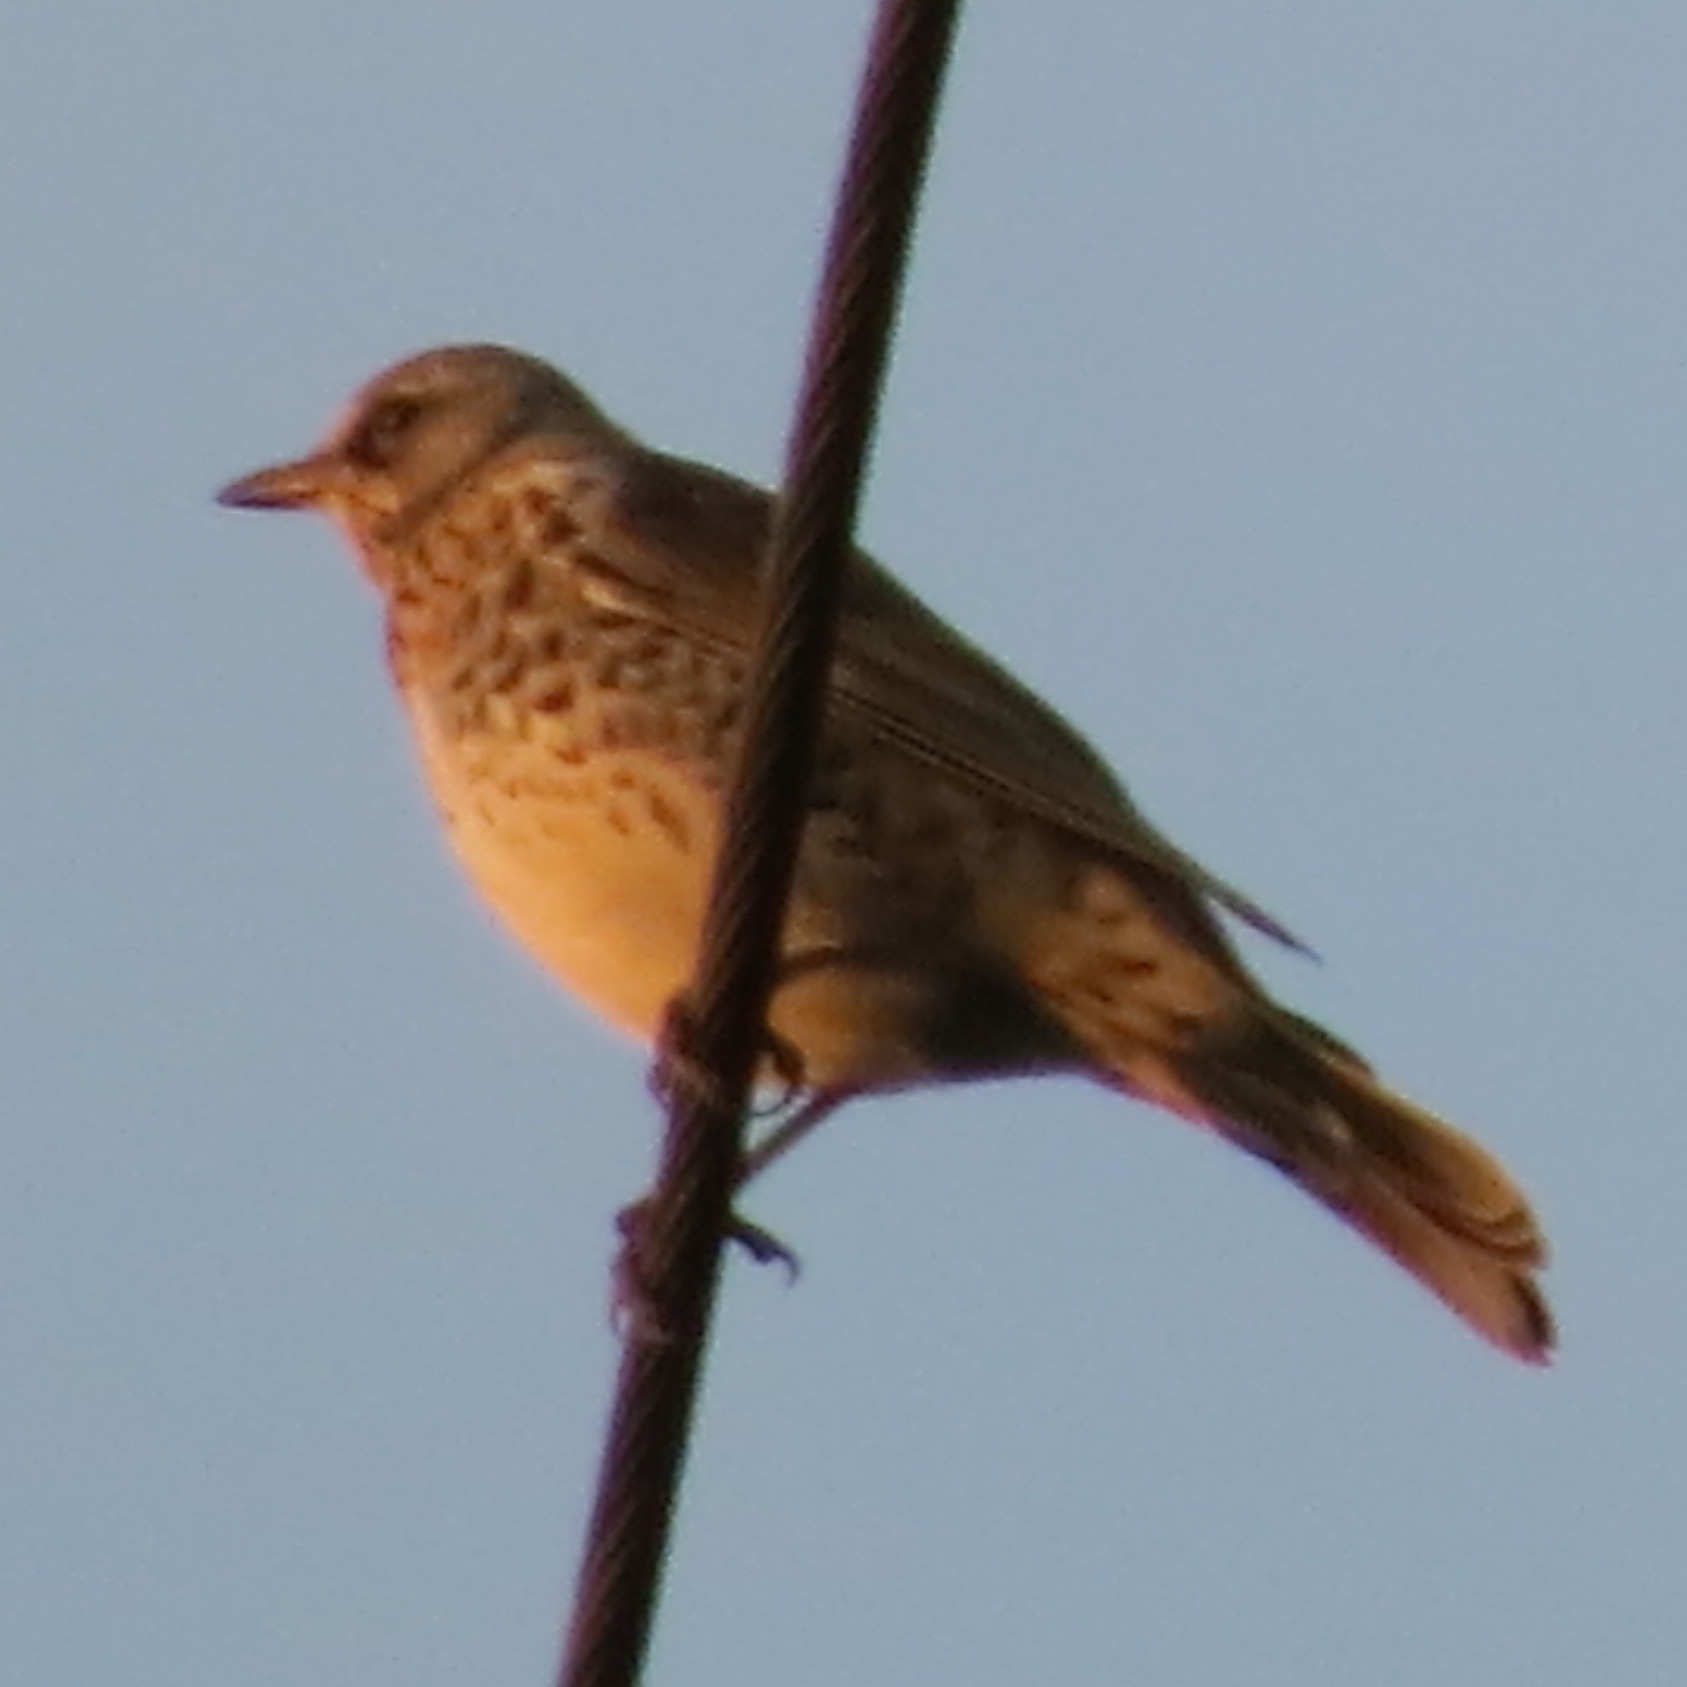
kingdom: Animalia
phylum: Chordata
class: Aves
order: Passeriformes
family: Turdidae
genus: Turdus
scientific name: Turdus pilaris
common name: Fieldfare
